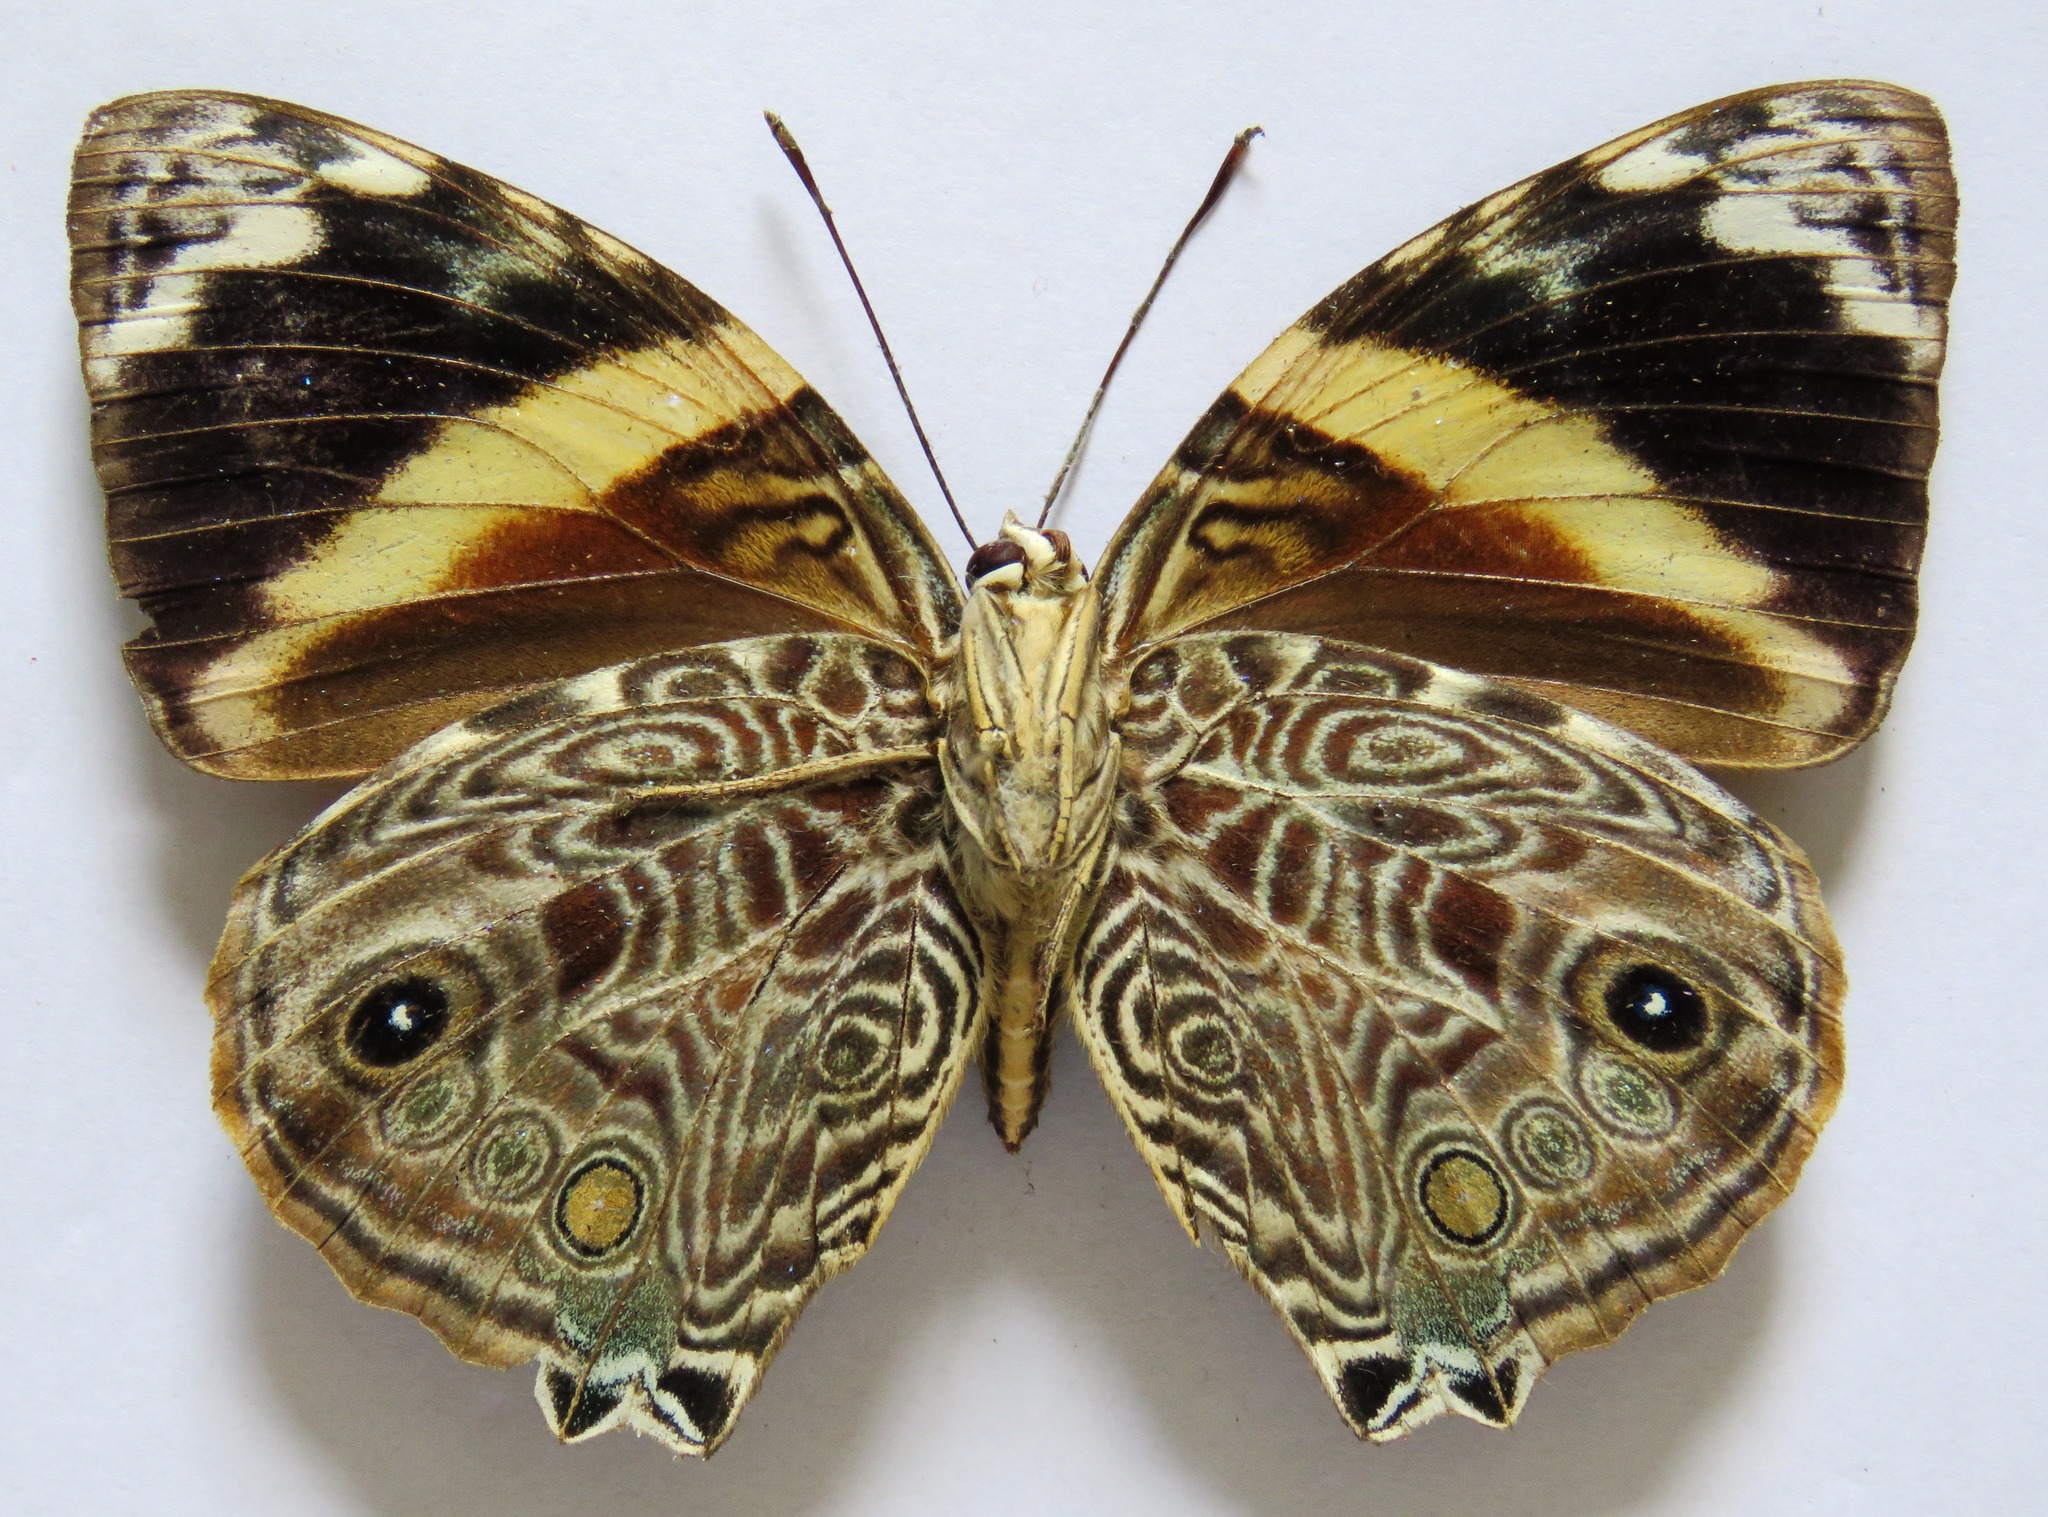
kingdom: Animalia
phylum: Arthropoda
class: Insecta
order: Lepidoptera
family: Nymphalidae
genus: Smyrna
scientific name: Smyrna blomfildia
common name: Blomfild's beauty
